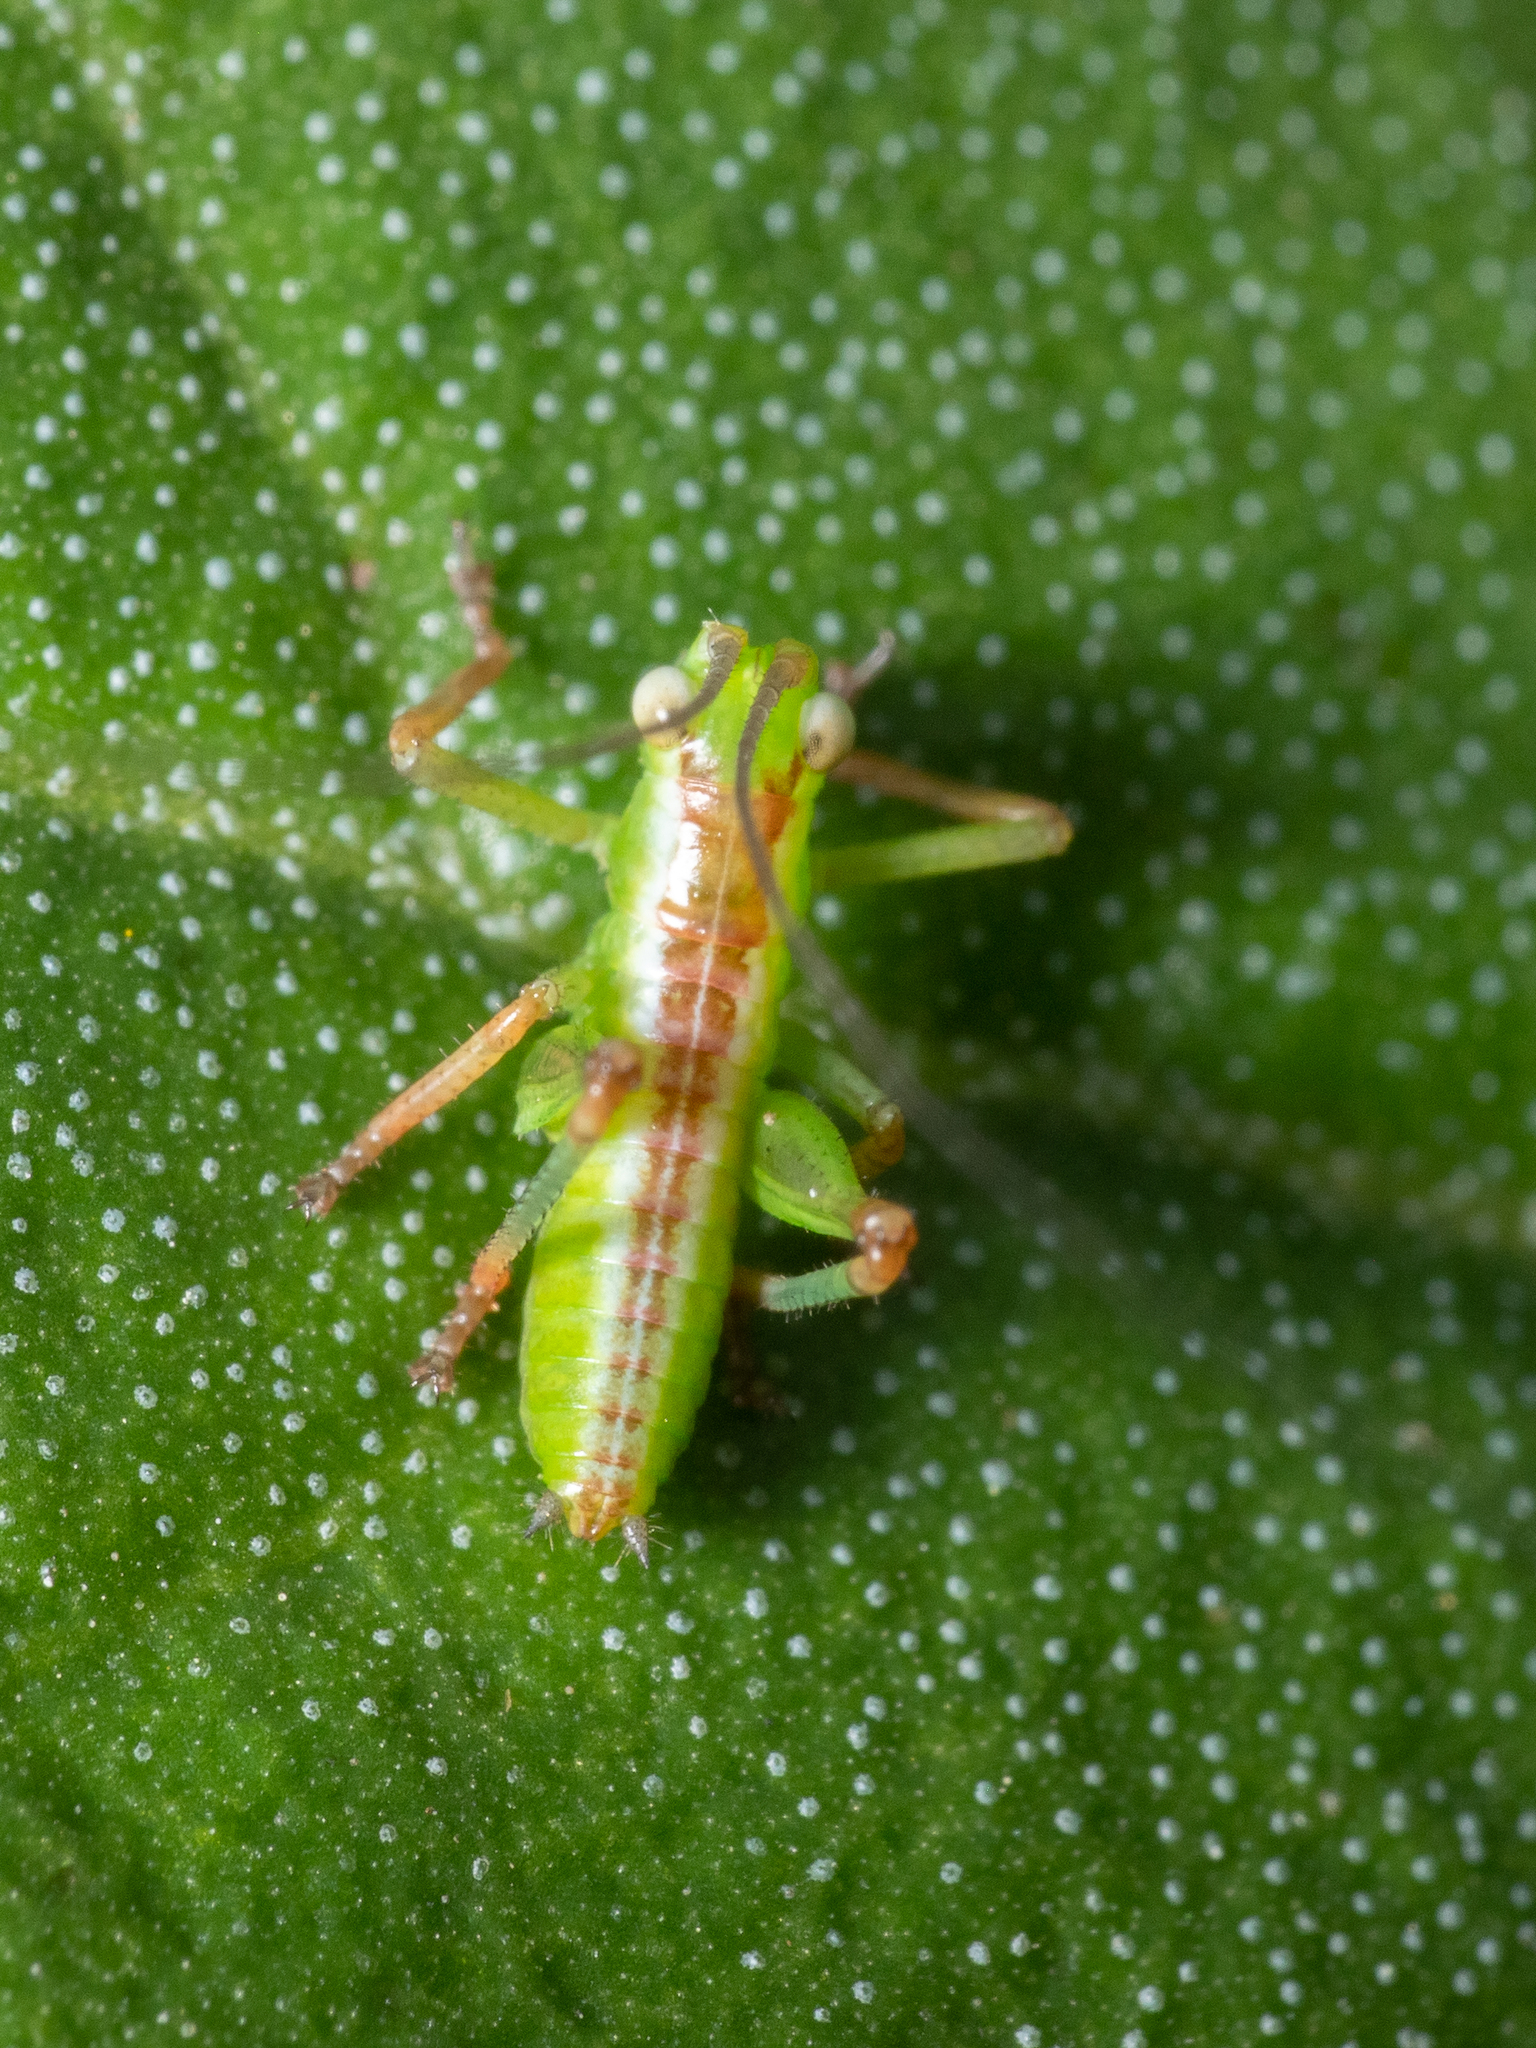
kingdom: Animalia
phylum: Arthropoda
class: Insecta
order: Orthoptera
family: Tettigoniidae
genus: Conocephalomima
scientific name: Conocephalomima barameda
